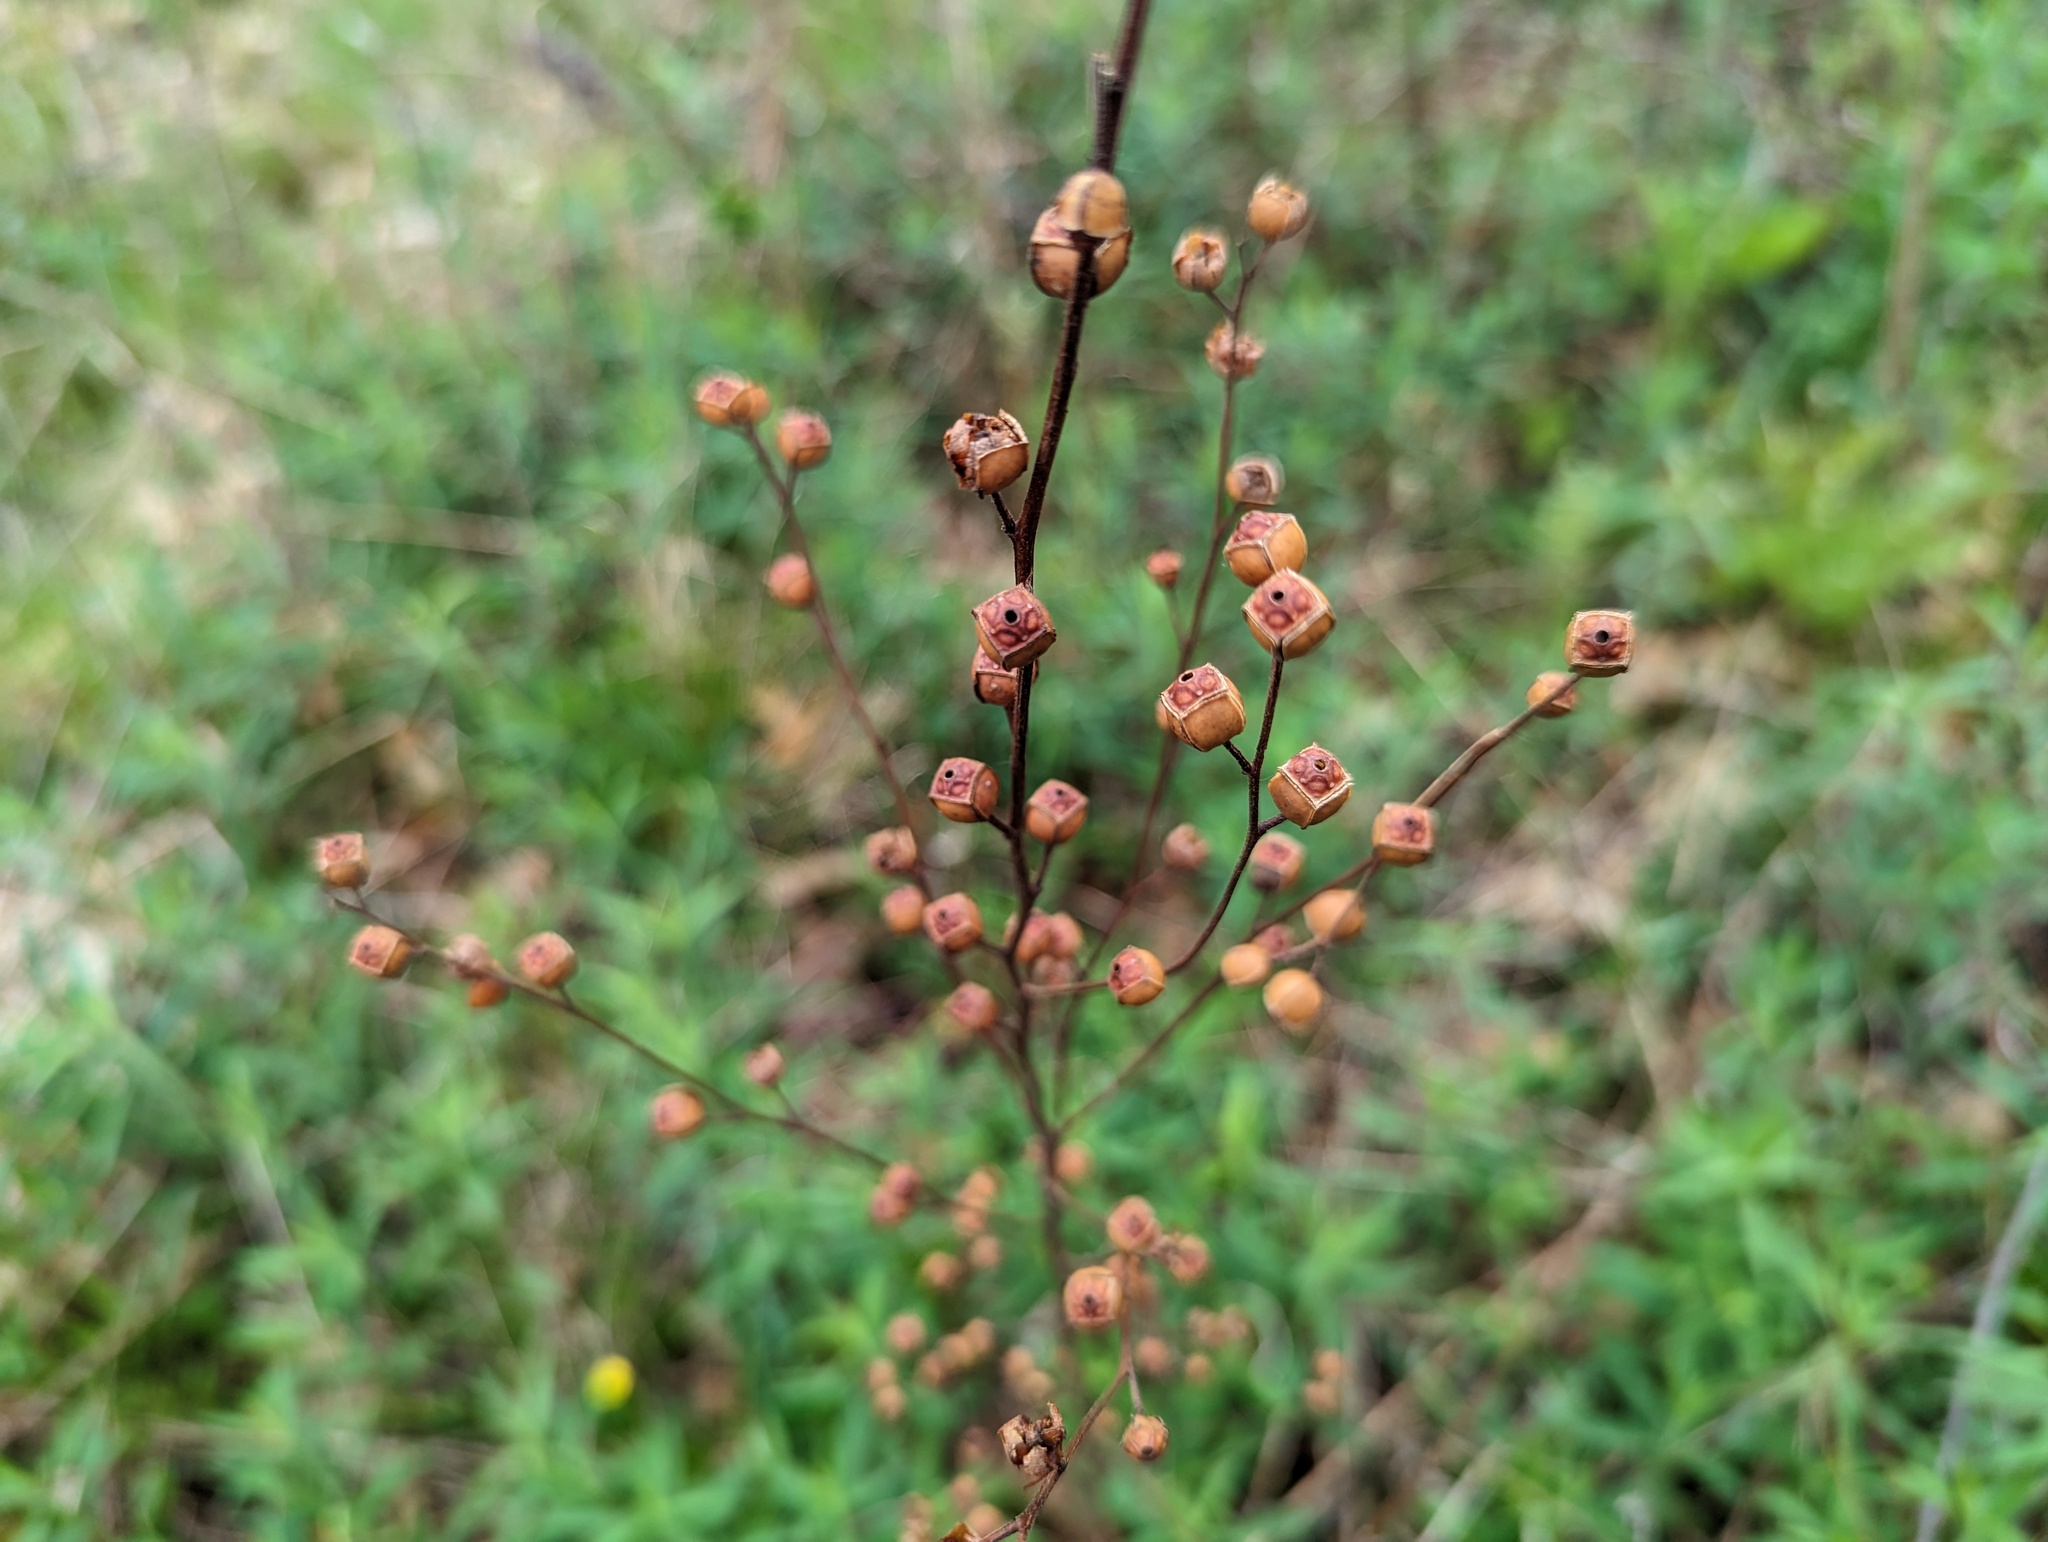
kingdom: Plantae
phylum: Tracheophyta
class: Magnoliopsida
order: Myrtales
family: Onagraceae
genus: Ludwigia
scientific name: Ludwigia alternifolia
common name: Rattlebox
